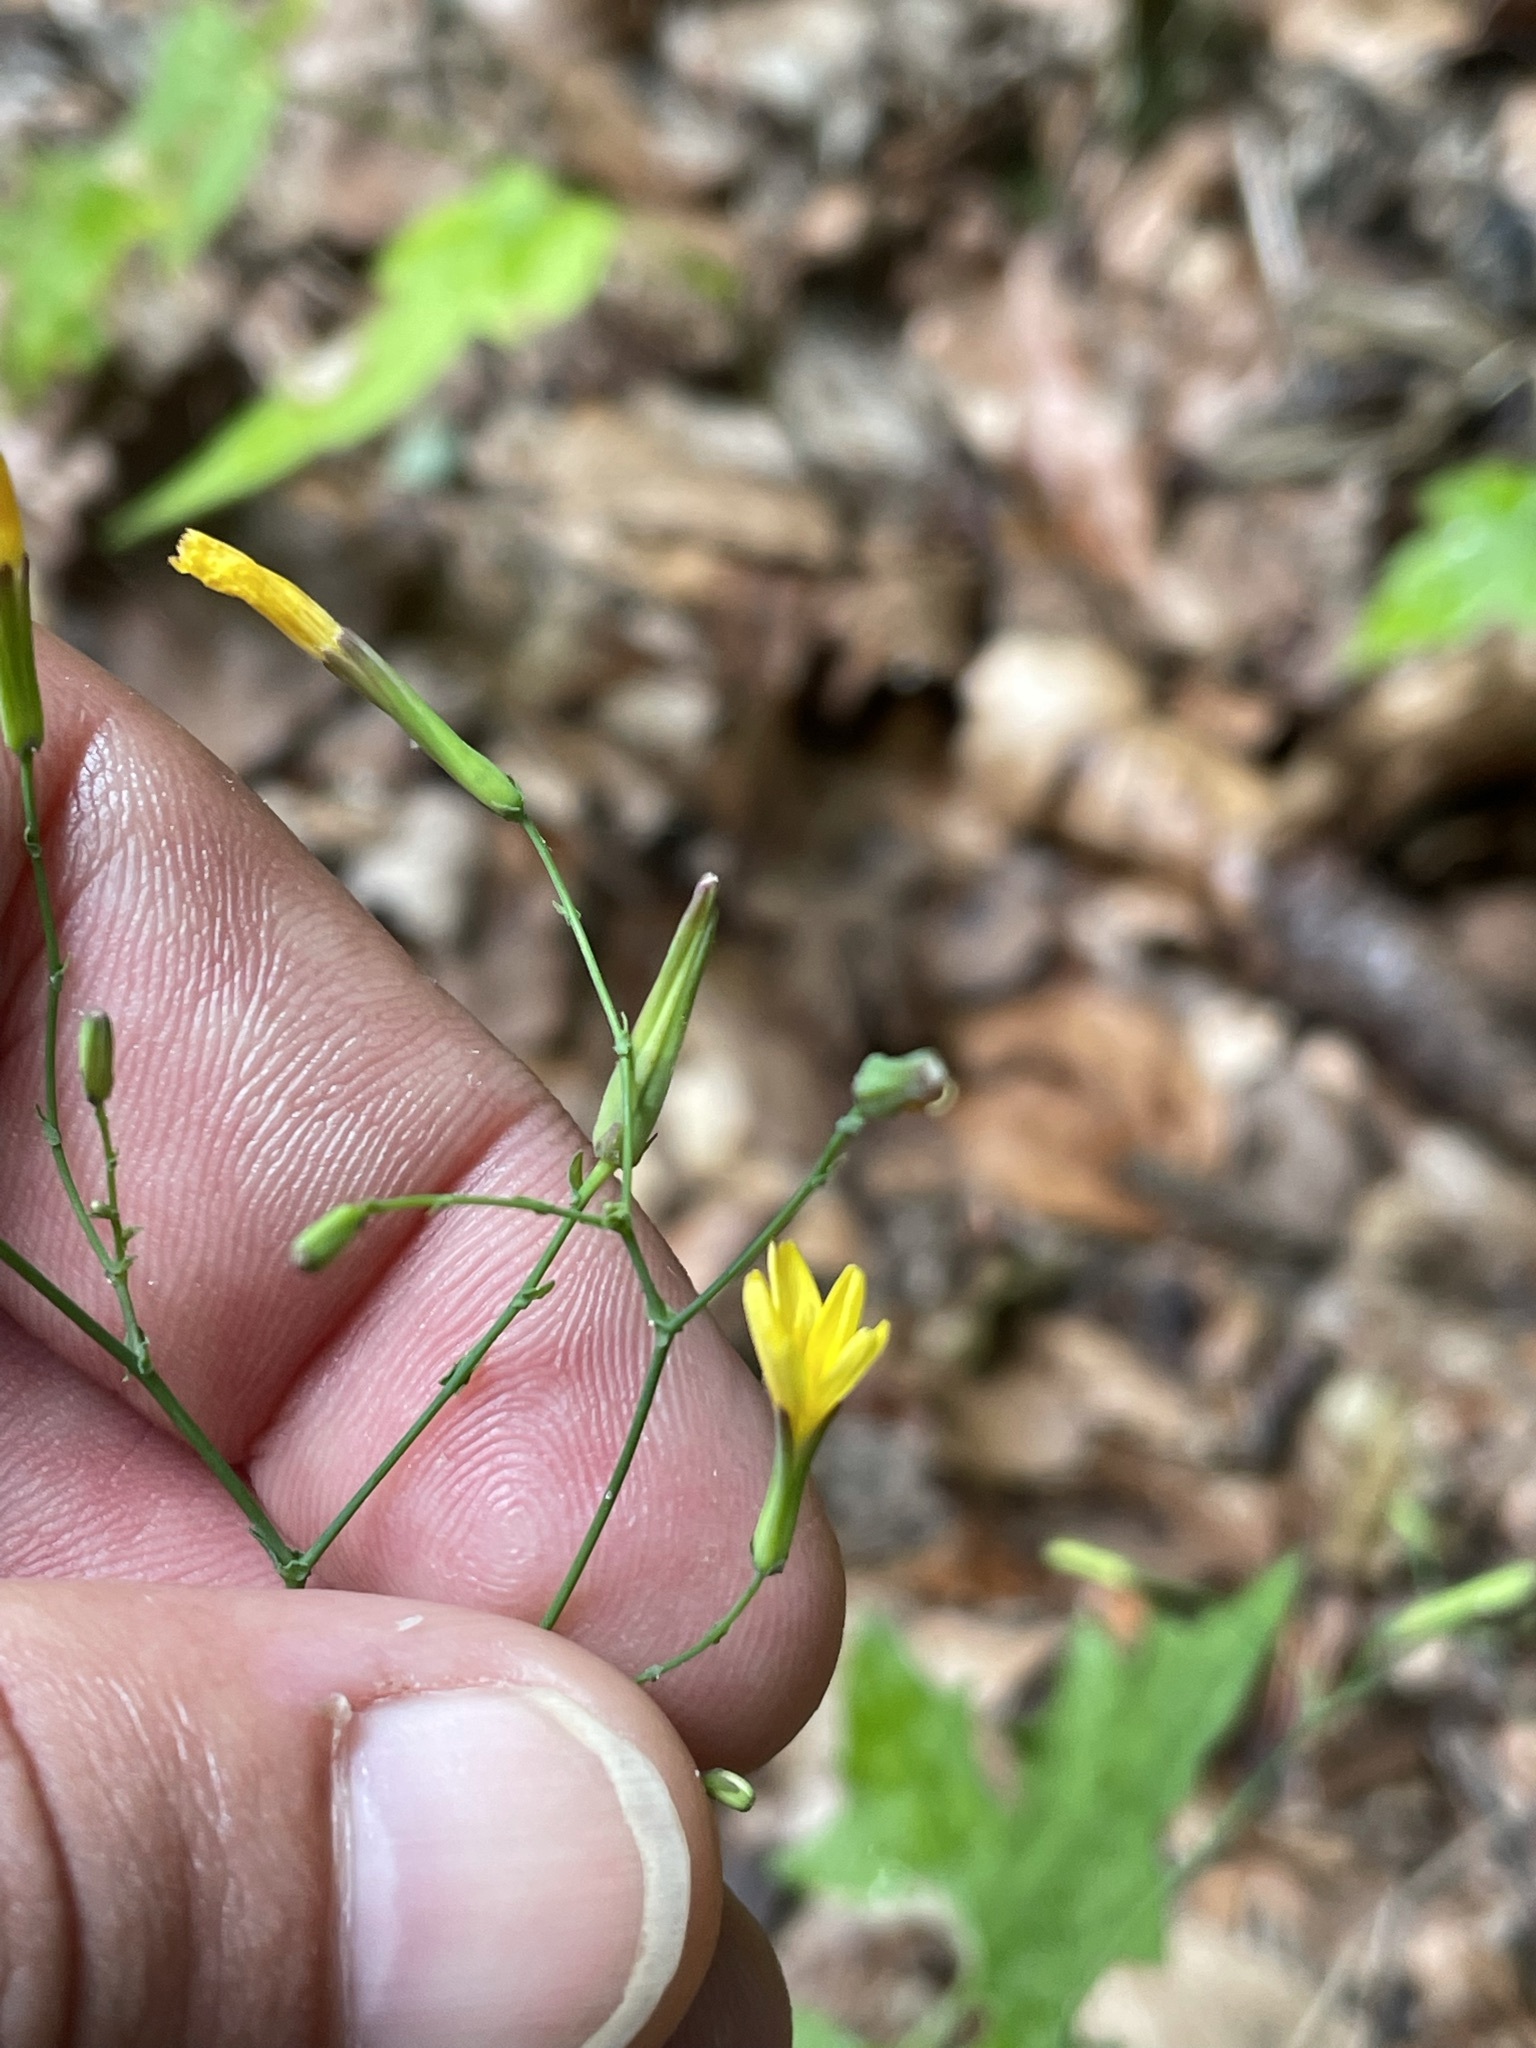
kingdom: Plantae
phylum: Tracheophyta
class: Magnoliopsida
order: Asterales
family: Asteraceae
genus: Mycelis
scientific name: Mycelis muralis
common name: Wall lettuce
